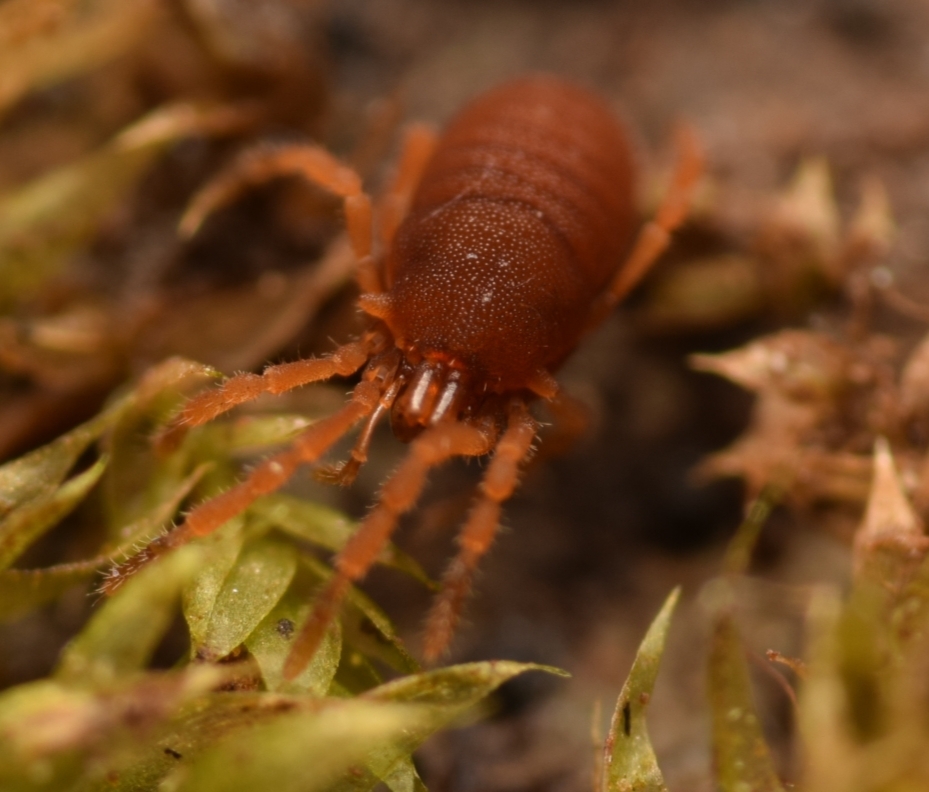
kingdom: Animalia
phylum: Arthropoda
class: Arachnida
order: Opiliones
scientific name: Opiliones
